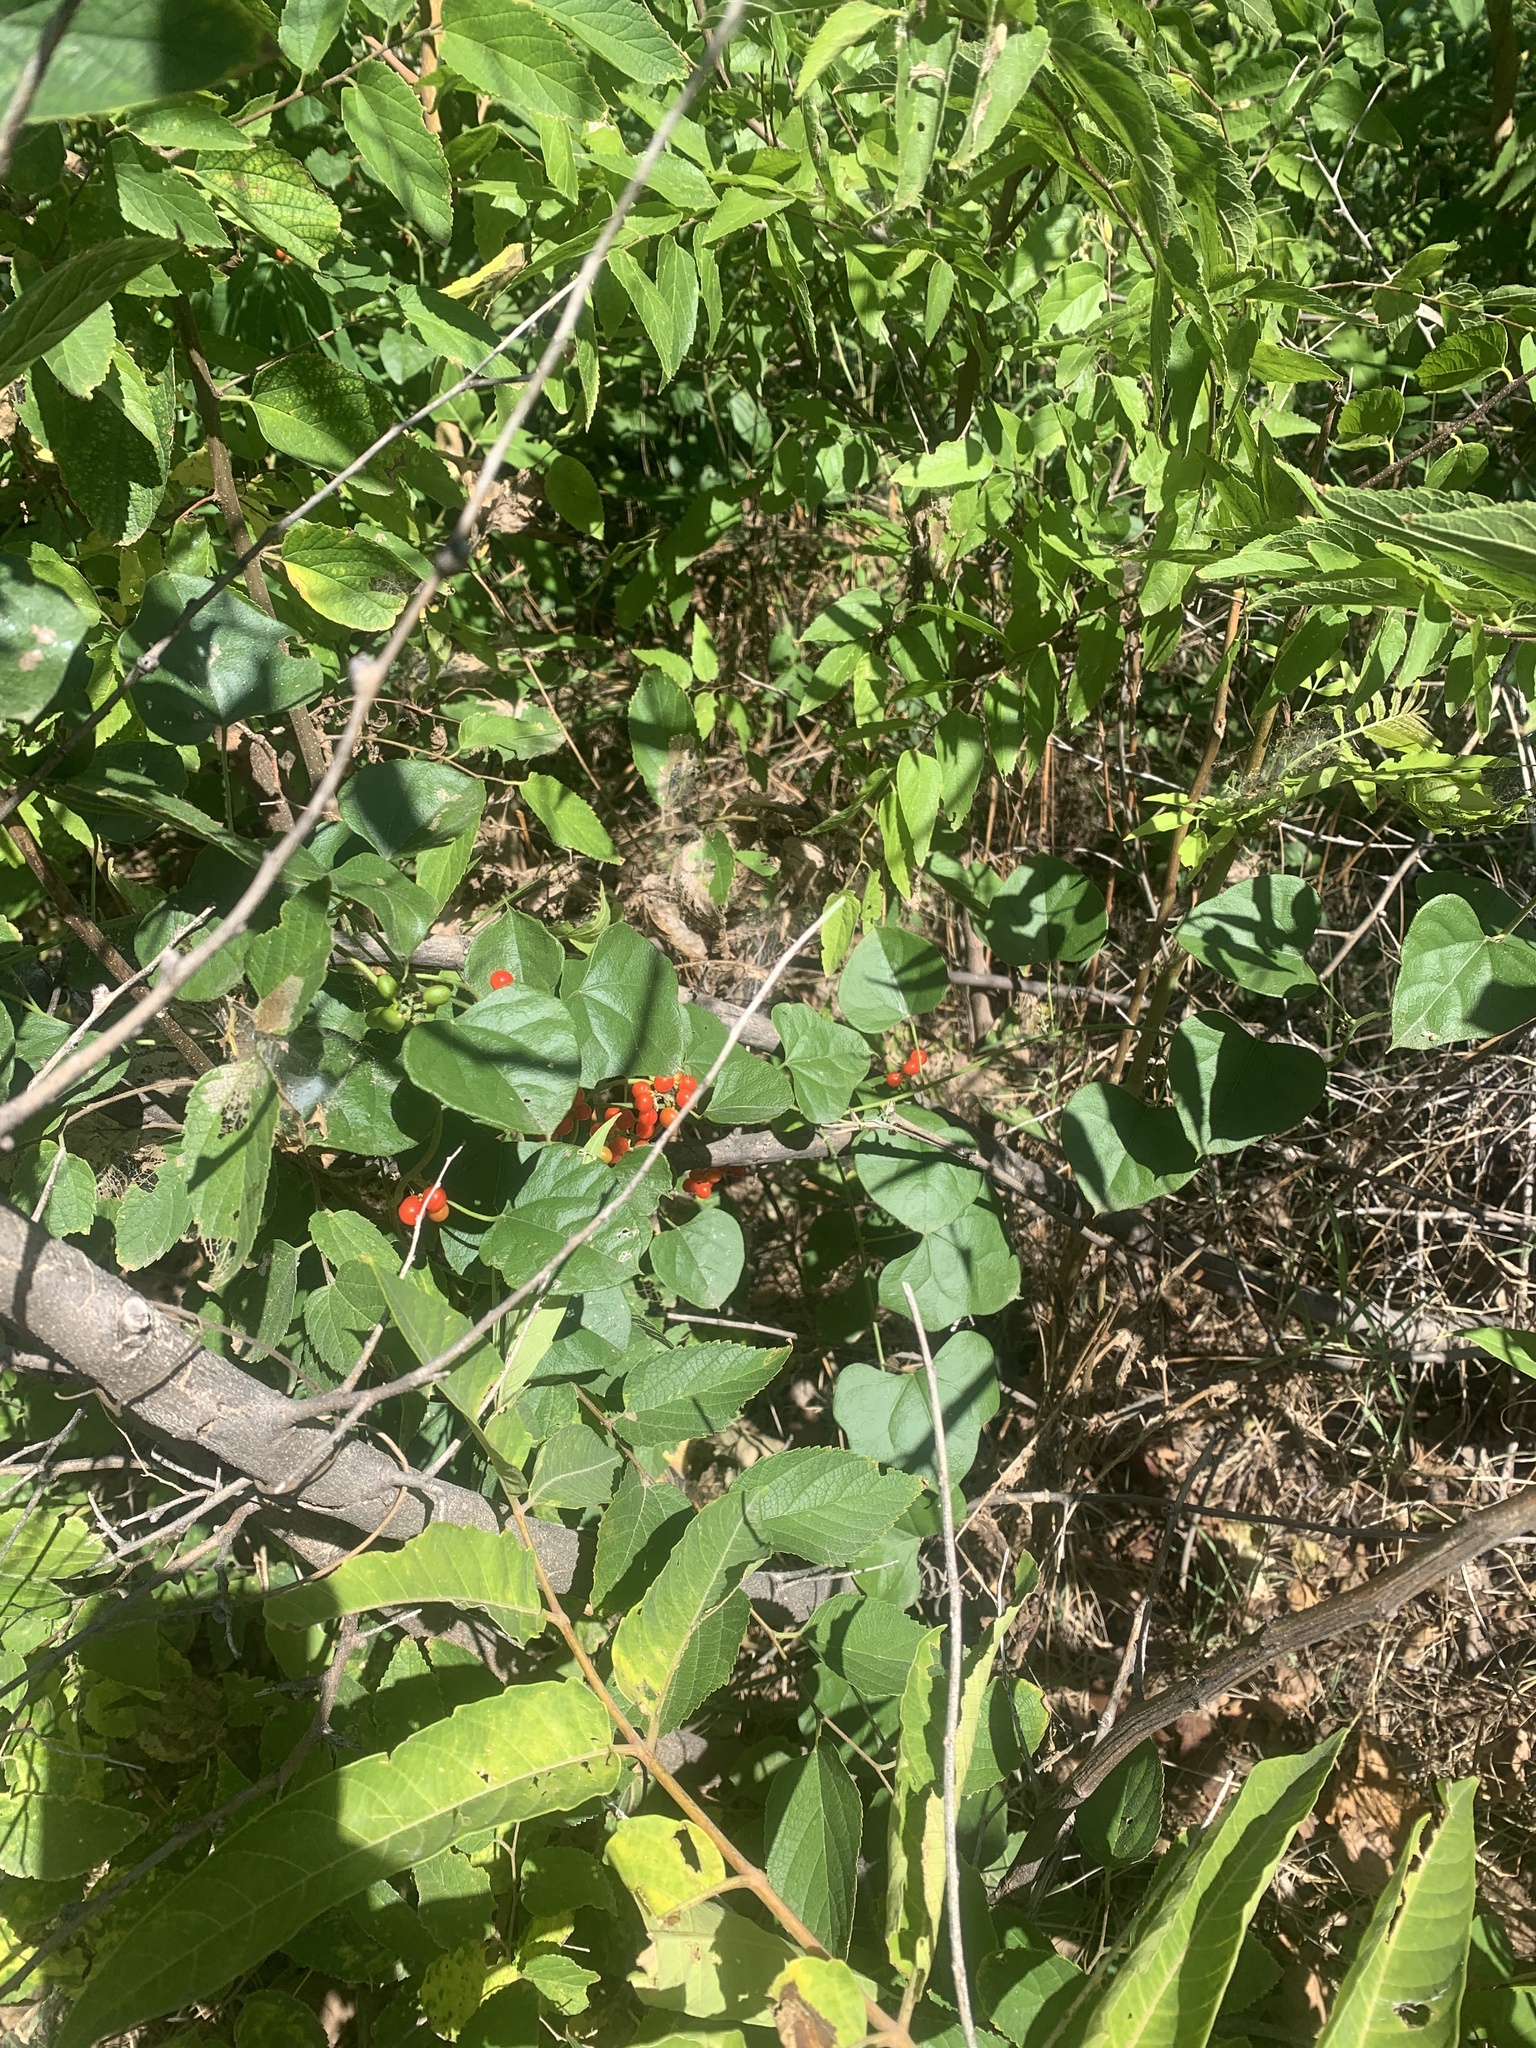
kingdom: Plantae
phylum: Tracheophyta
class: Magnoliopsida
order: Ranunculales
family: Menispermaceae
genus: Cocculus
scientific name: Cocculus carolinus
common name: Carolina moonseed
